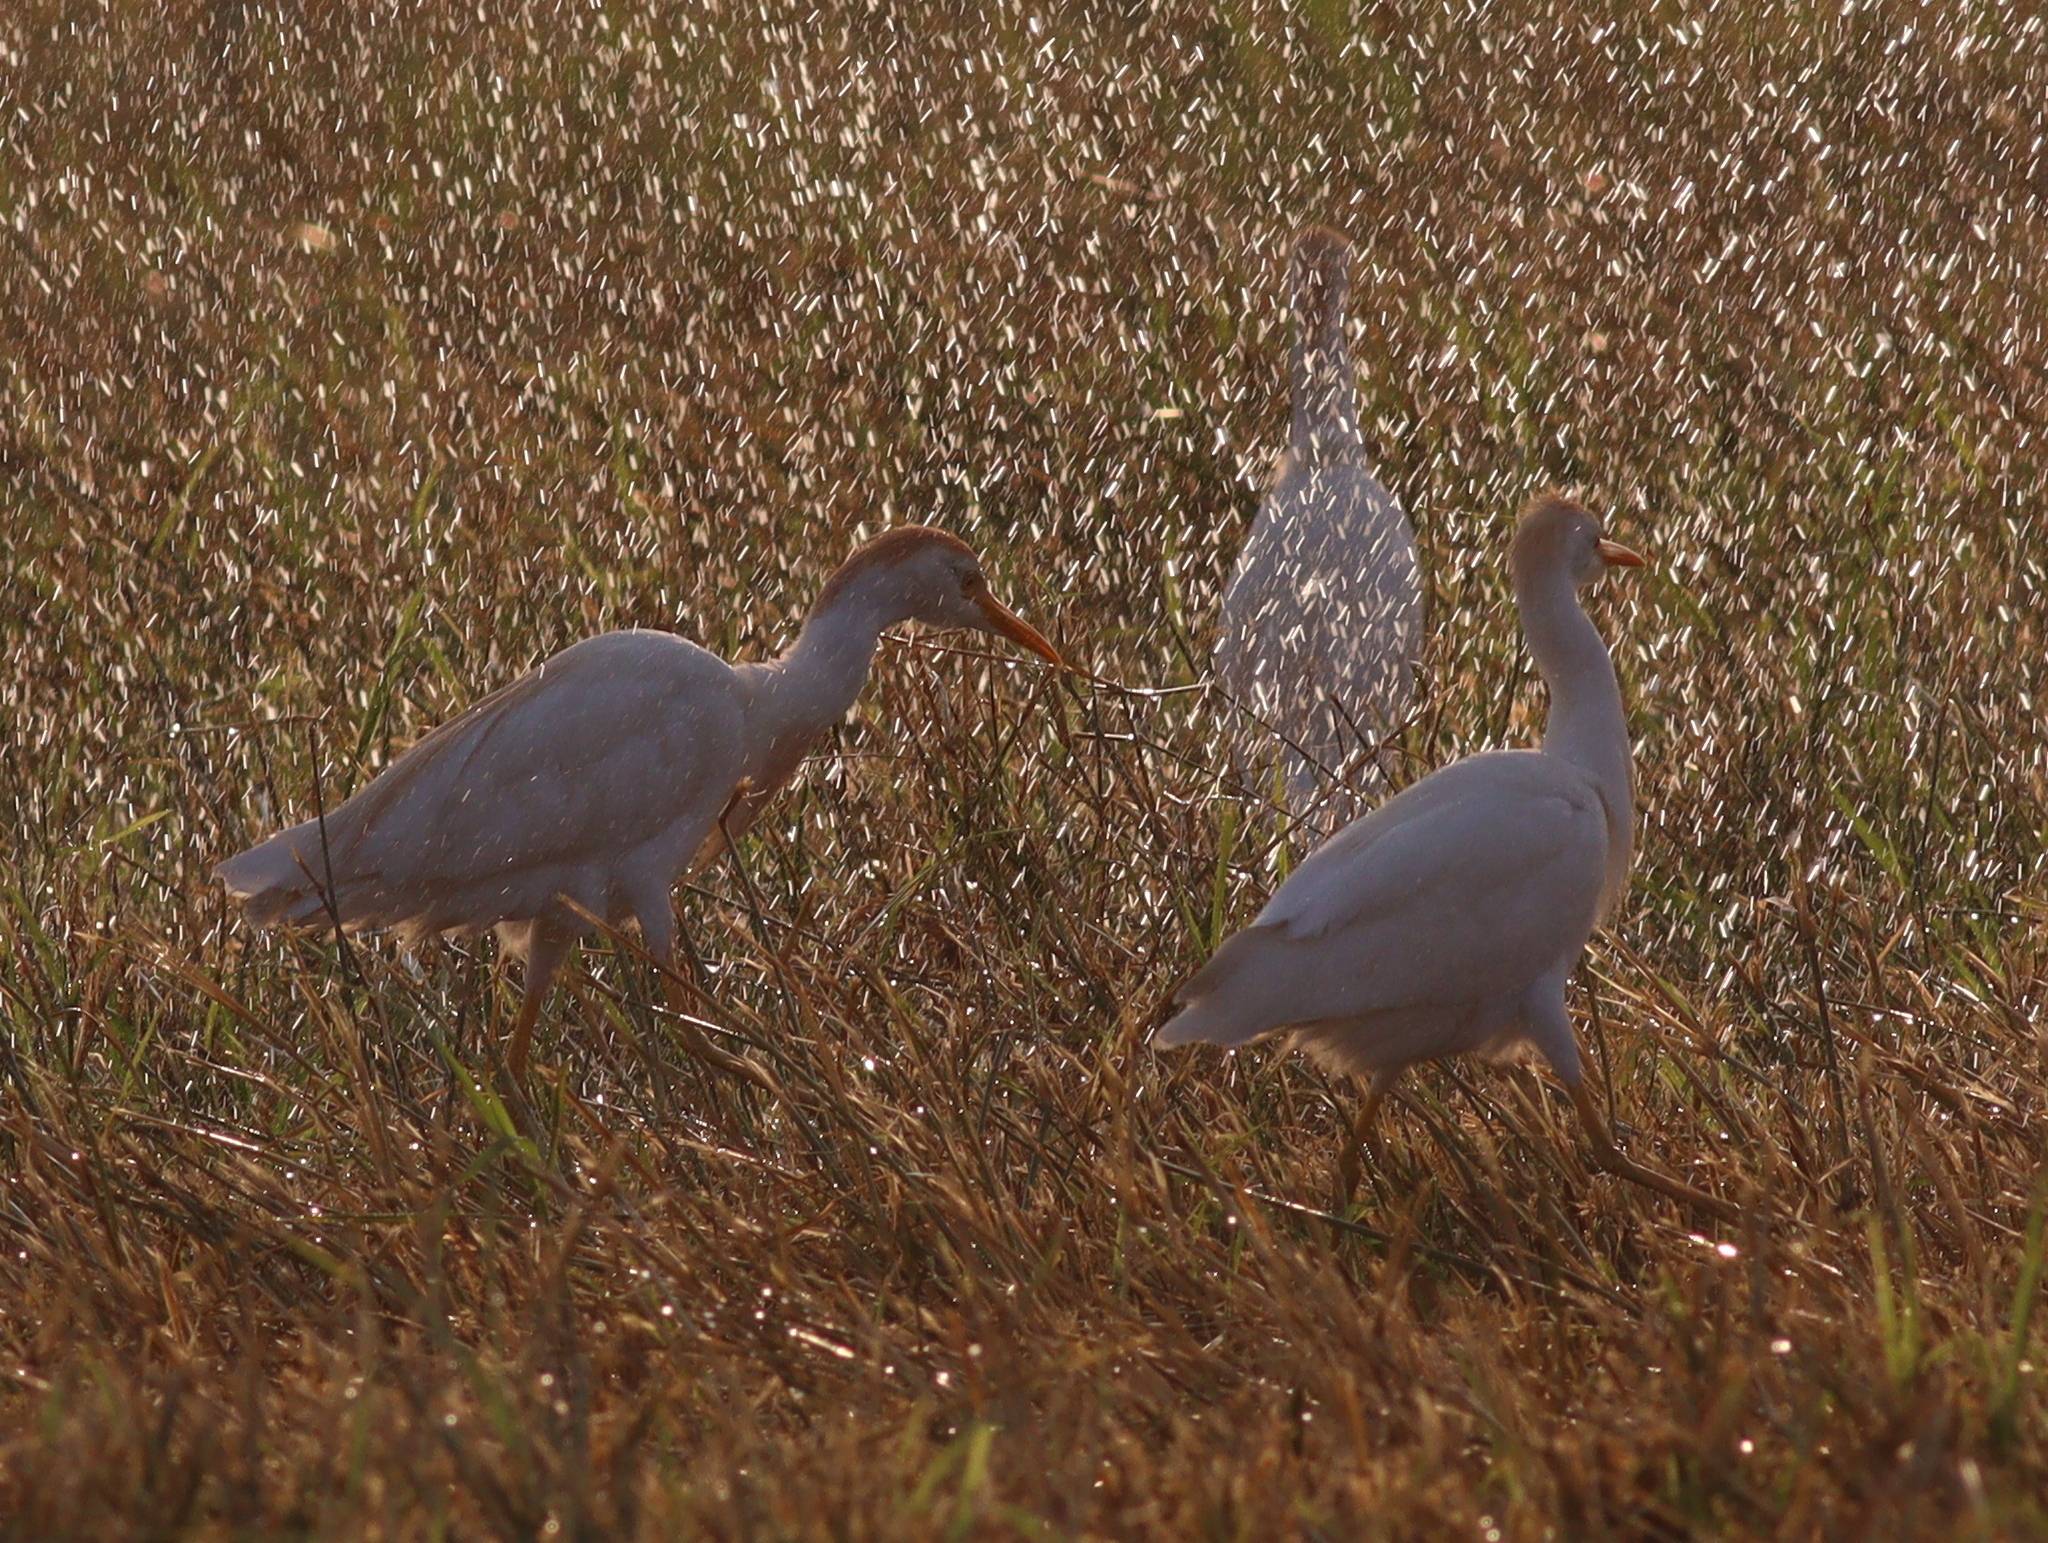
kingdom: Animalia
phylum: Chordata
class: Aves
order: Pelecaniformes
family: Ardeidae
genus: Bubulcus
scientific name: Bubulcus ibis
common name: Cattle egret
